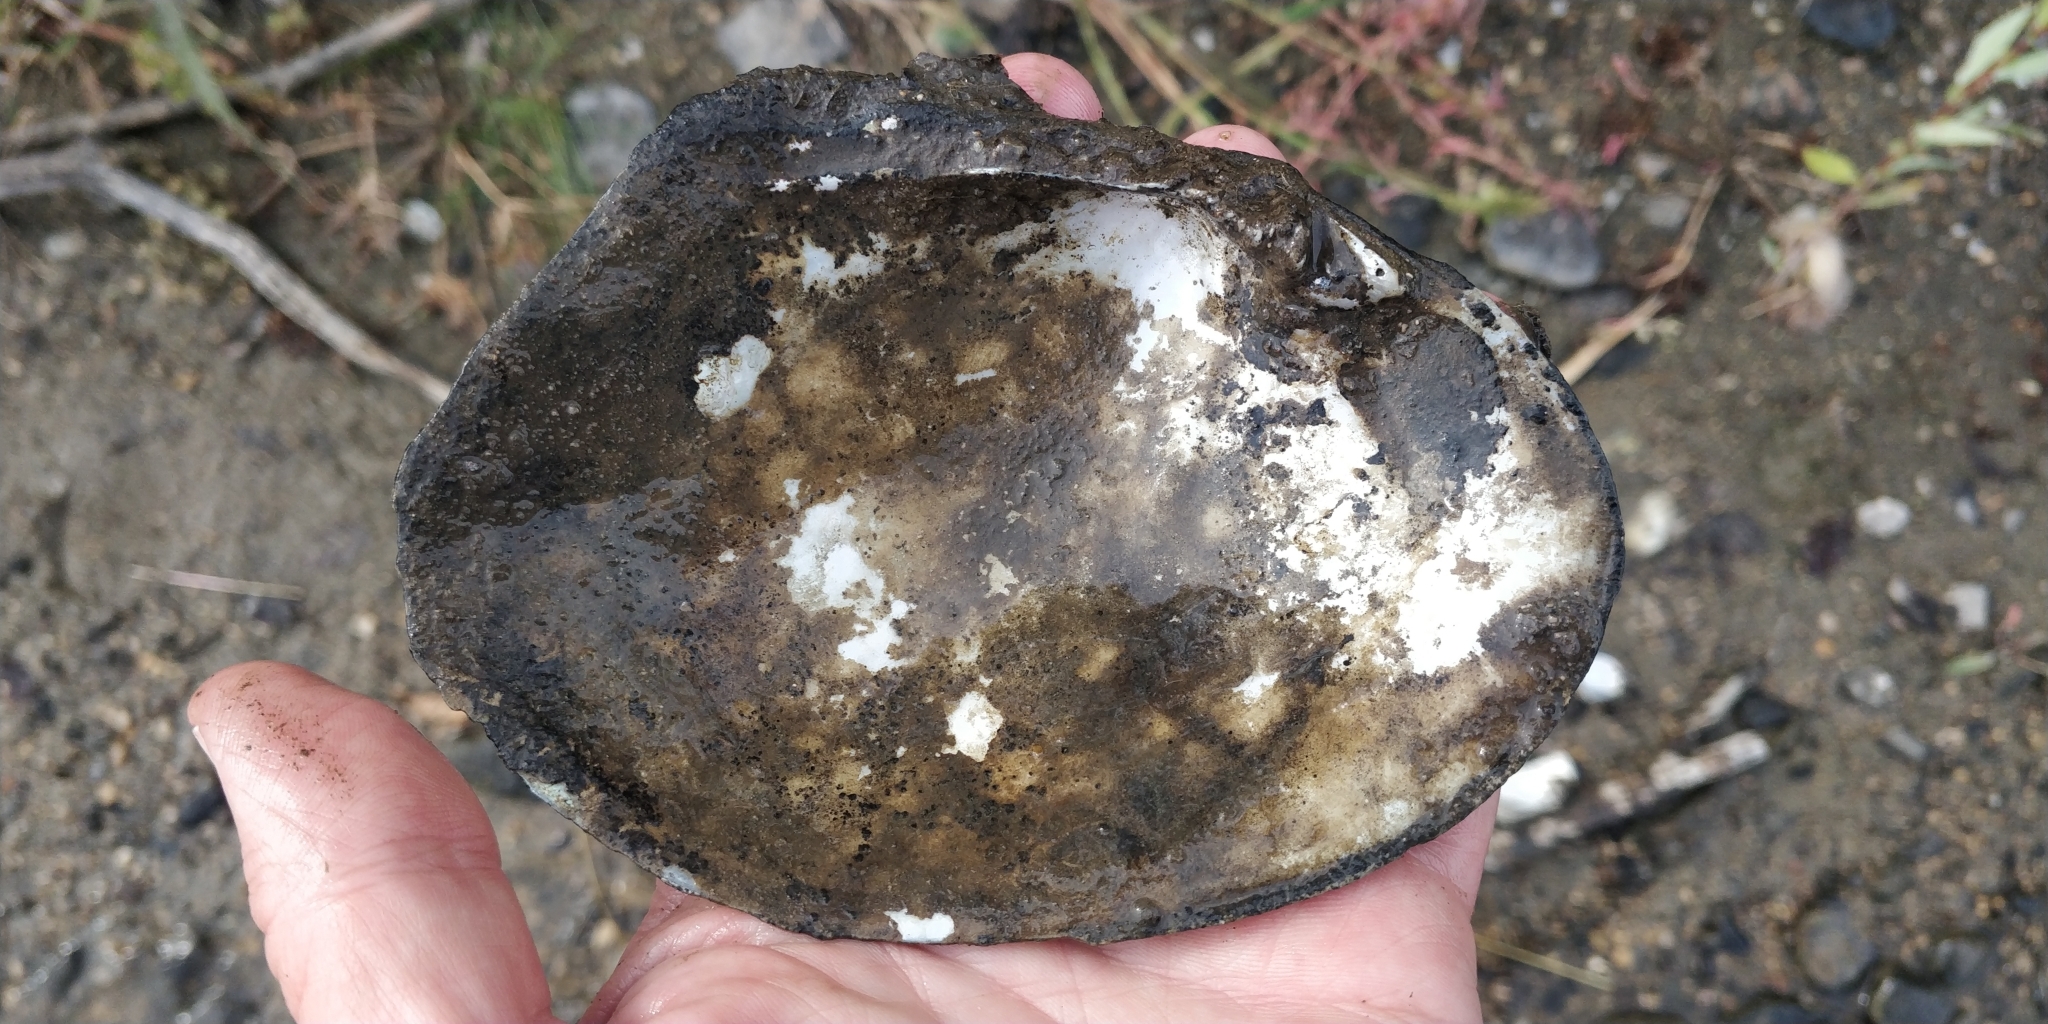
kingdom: Animalia
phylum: Mollusca
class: Bivalvia
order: Unionida
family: Unionidae
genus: Lasmigona
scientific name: Lasmigona complanata
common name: White heelsplitter
